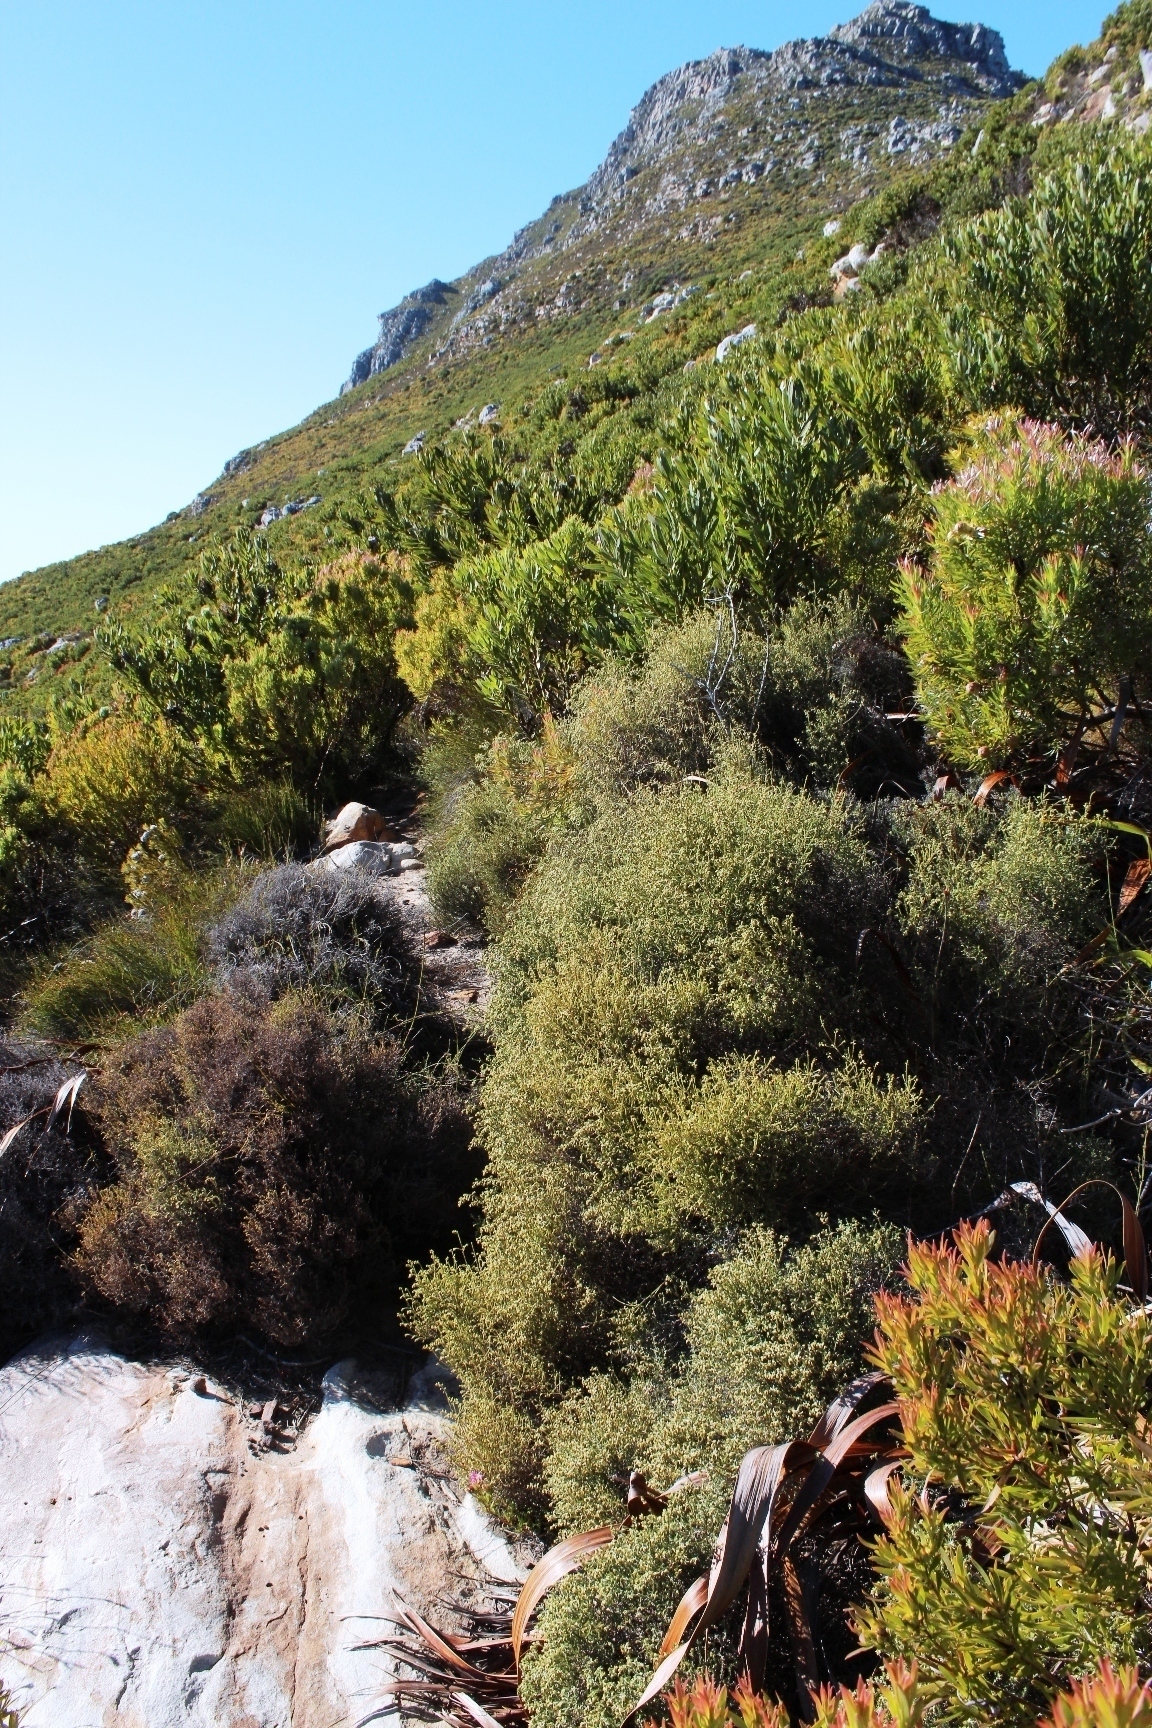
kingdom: Plantae
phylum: Tracheophyta
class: Magnoliopsida
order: Asterales
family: Asteraceae
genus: Myrovernix
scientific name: Myrovernix scaber
